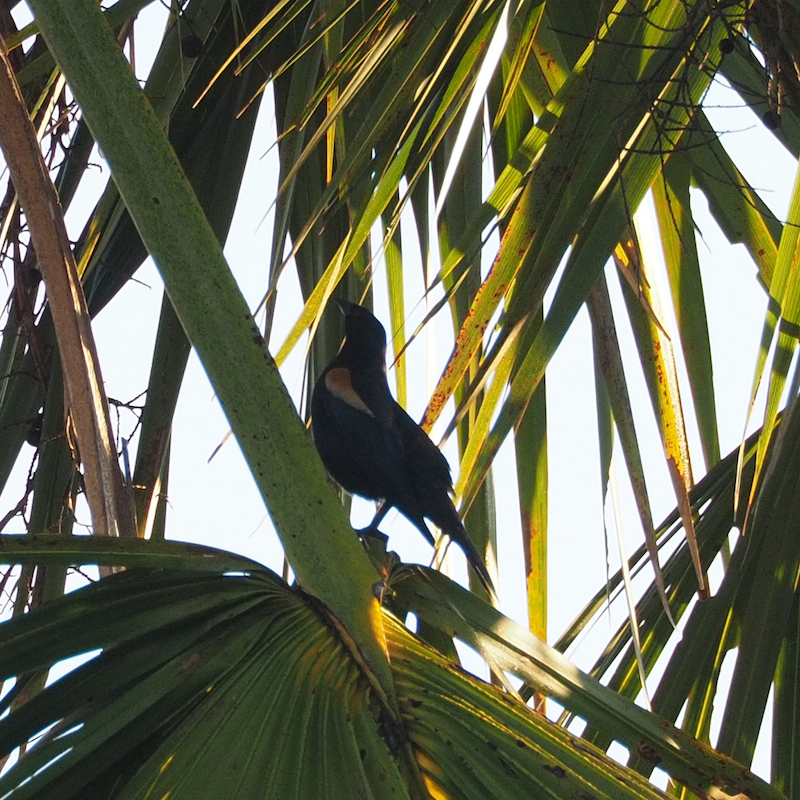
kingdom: Animalia
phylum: Chordata
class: Aves
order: Passeriformes
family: Icteridae
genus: Agelaius
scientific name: Agelaius humeralis
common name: Tawny-shouldered blackbird
